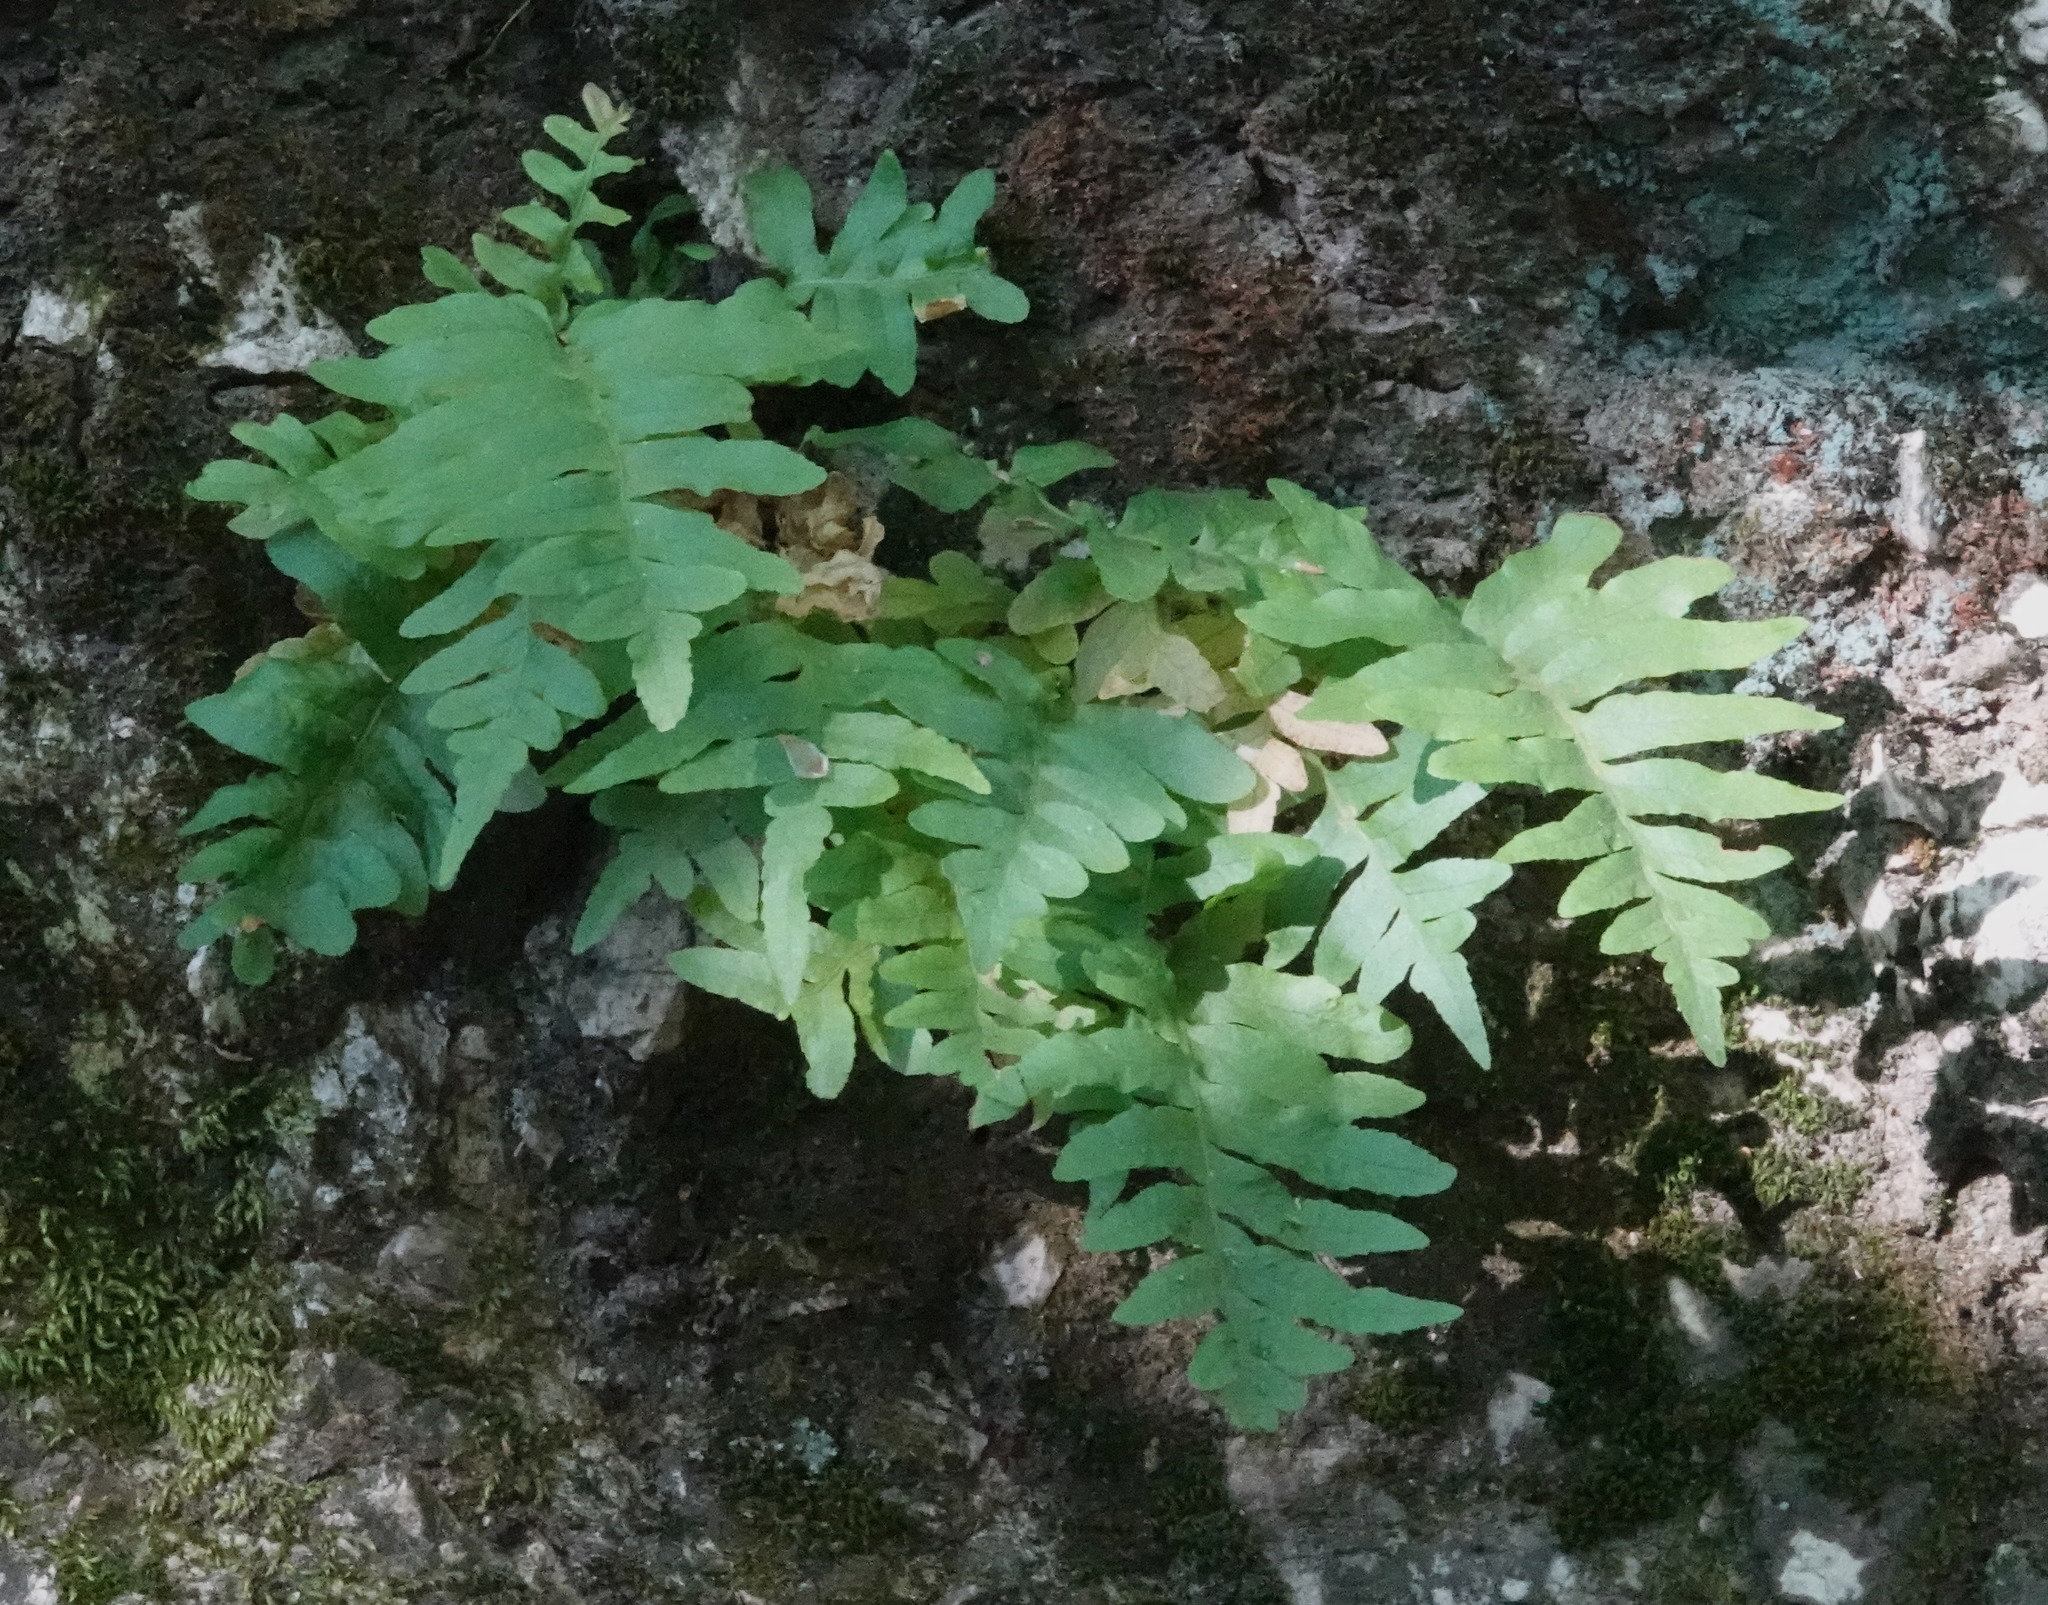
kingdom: Plantae
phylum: Tracheophyta
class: Polypodiopsida
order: Polypodiales
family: Polypodiaceae
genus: Polypodium
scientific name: Polypodium californicum
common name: California polypody
